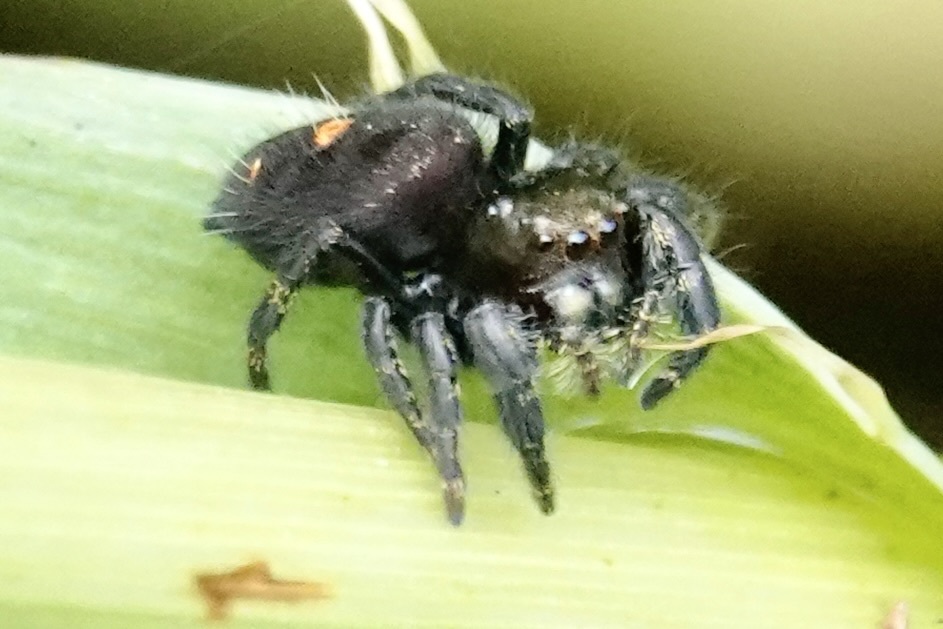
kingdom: Animalia
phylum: Arthropoda
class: Arachnida
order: Araneae
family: Salticidae
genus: Phidippus
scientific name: Phidippus audax
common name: Bold jumper
